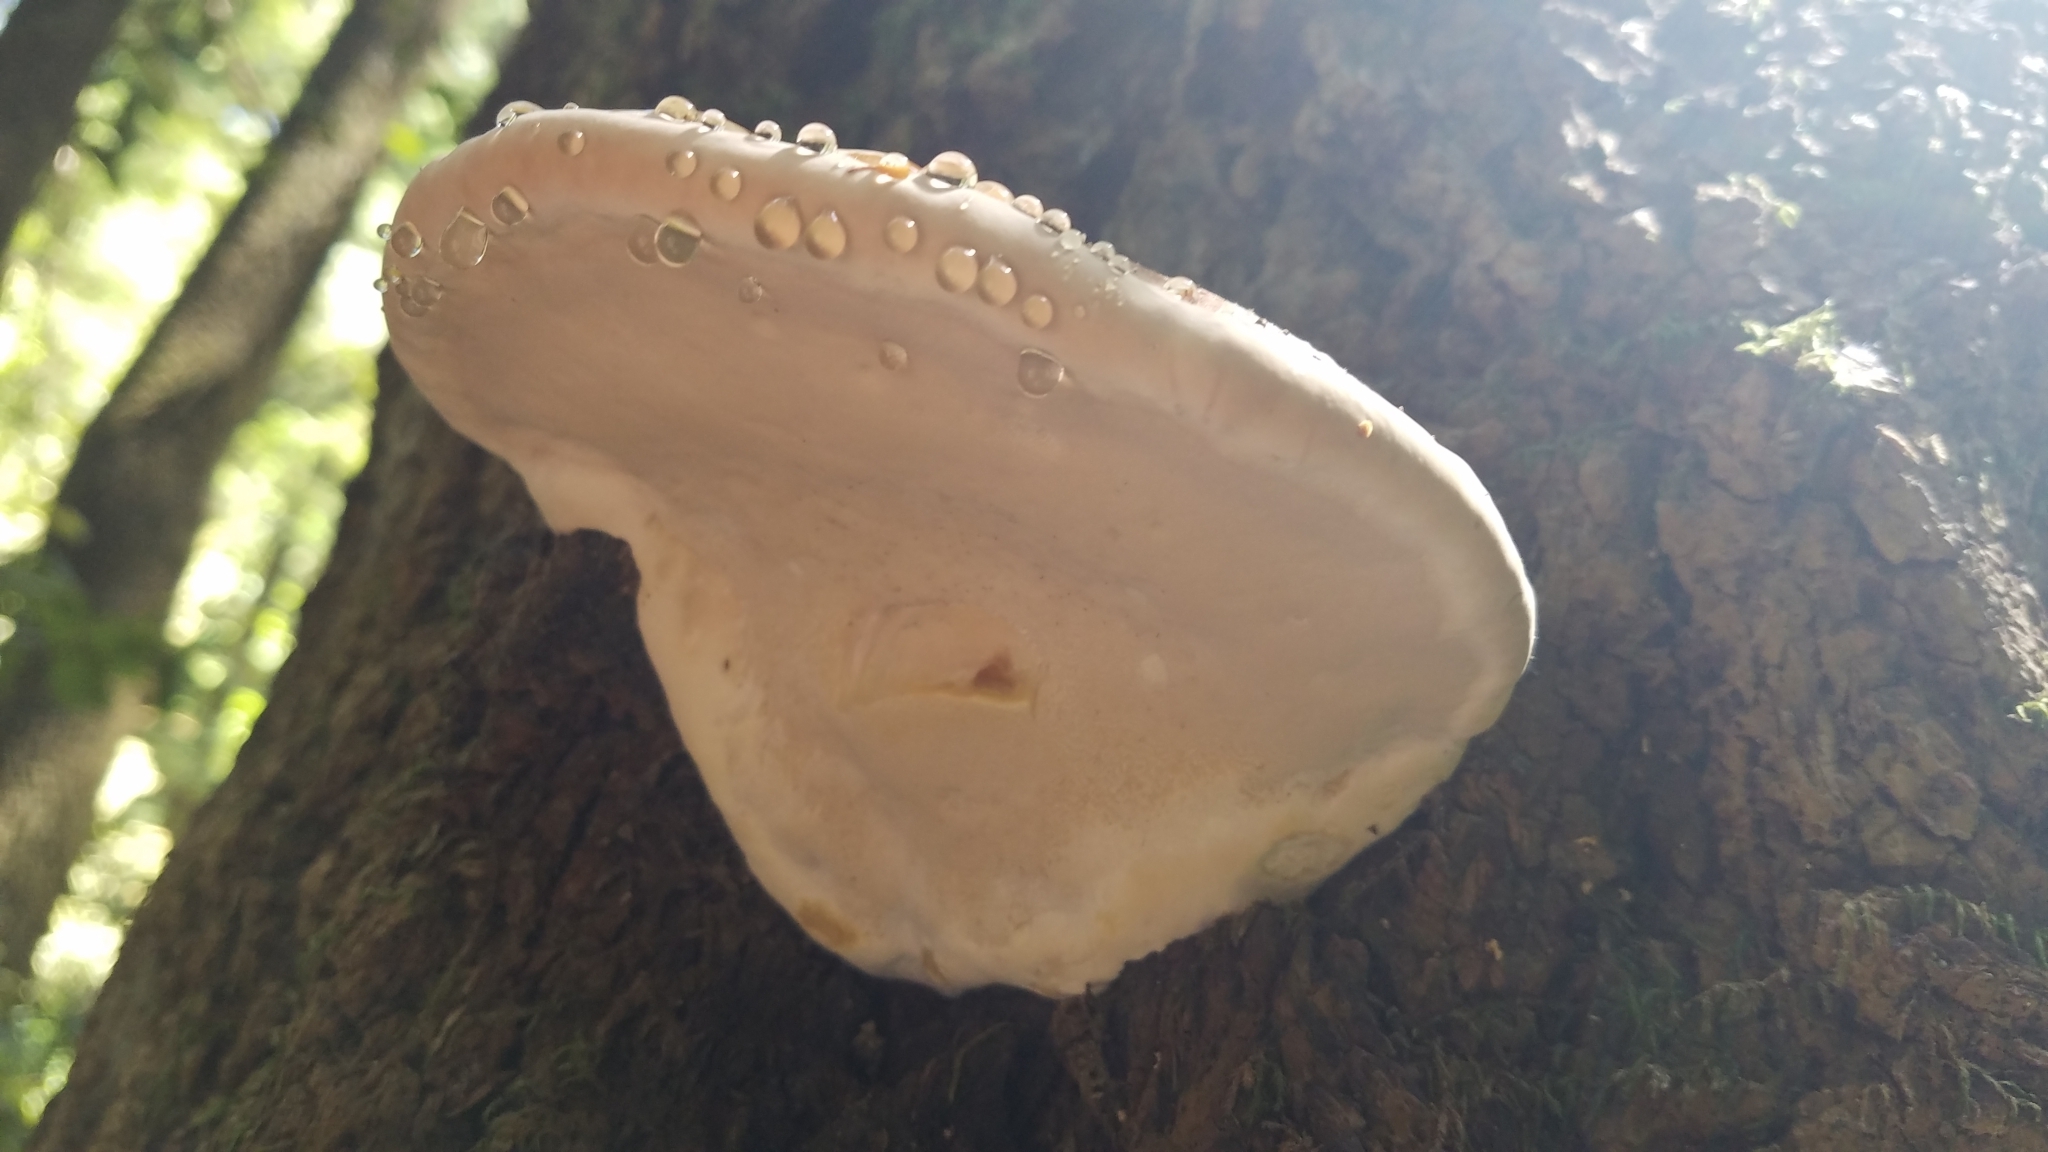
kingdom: Fungi
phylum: Basidiomycota
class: Agaricomycetes
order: Polyporales
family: Fomitopsidaceae
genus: Fomitopsis
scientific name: Fomitopsis mounceae
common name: Northern red belt
